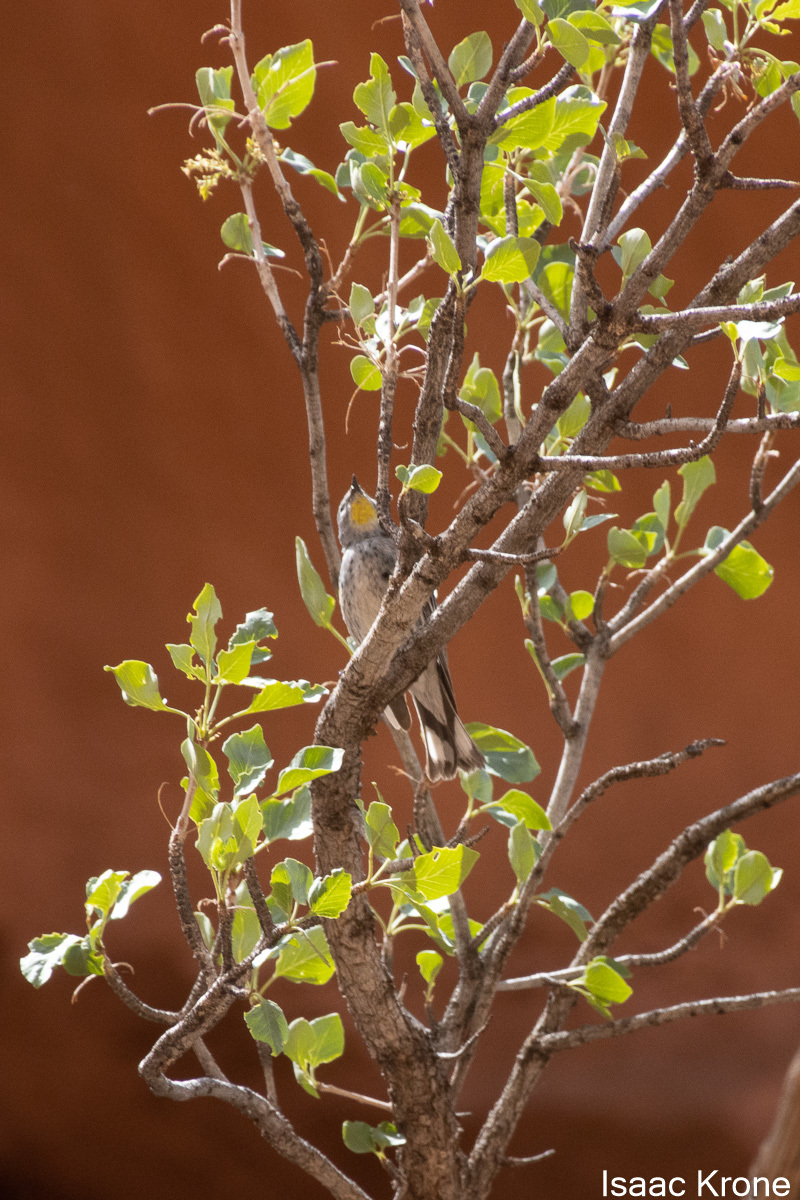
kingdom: Animalia
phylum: Chordata
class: Aves
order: Passeriformes
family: Parulidae
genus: Setophaga
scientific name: Setophaga coronata
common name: Myrtle warbler
